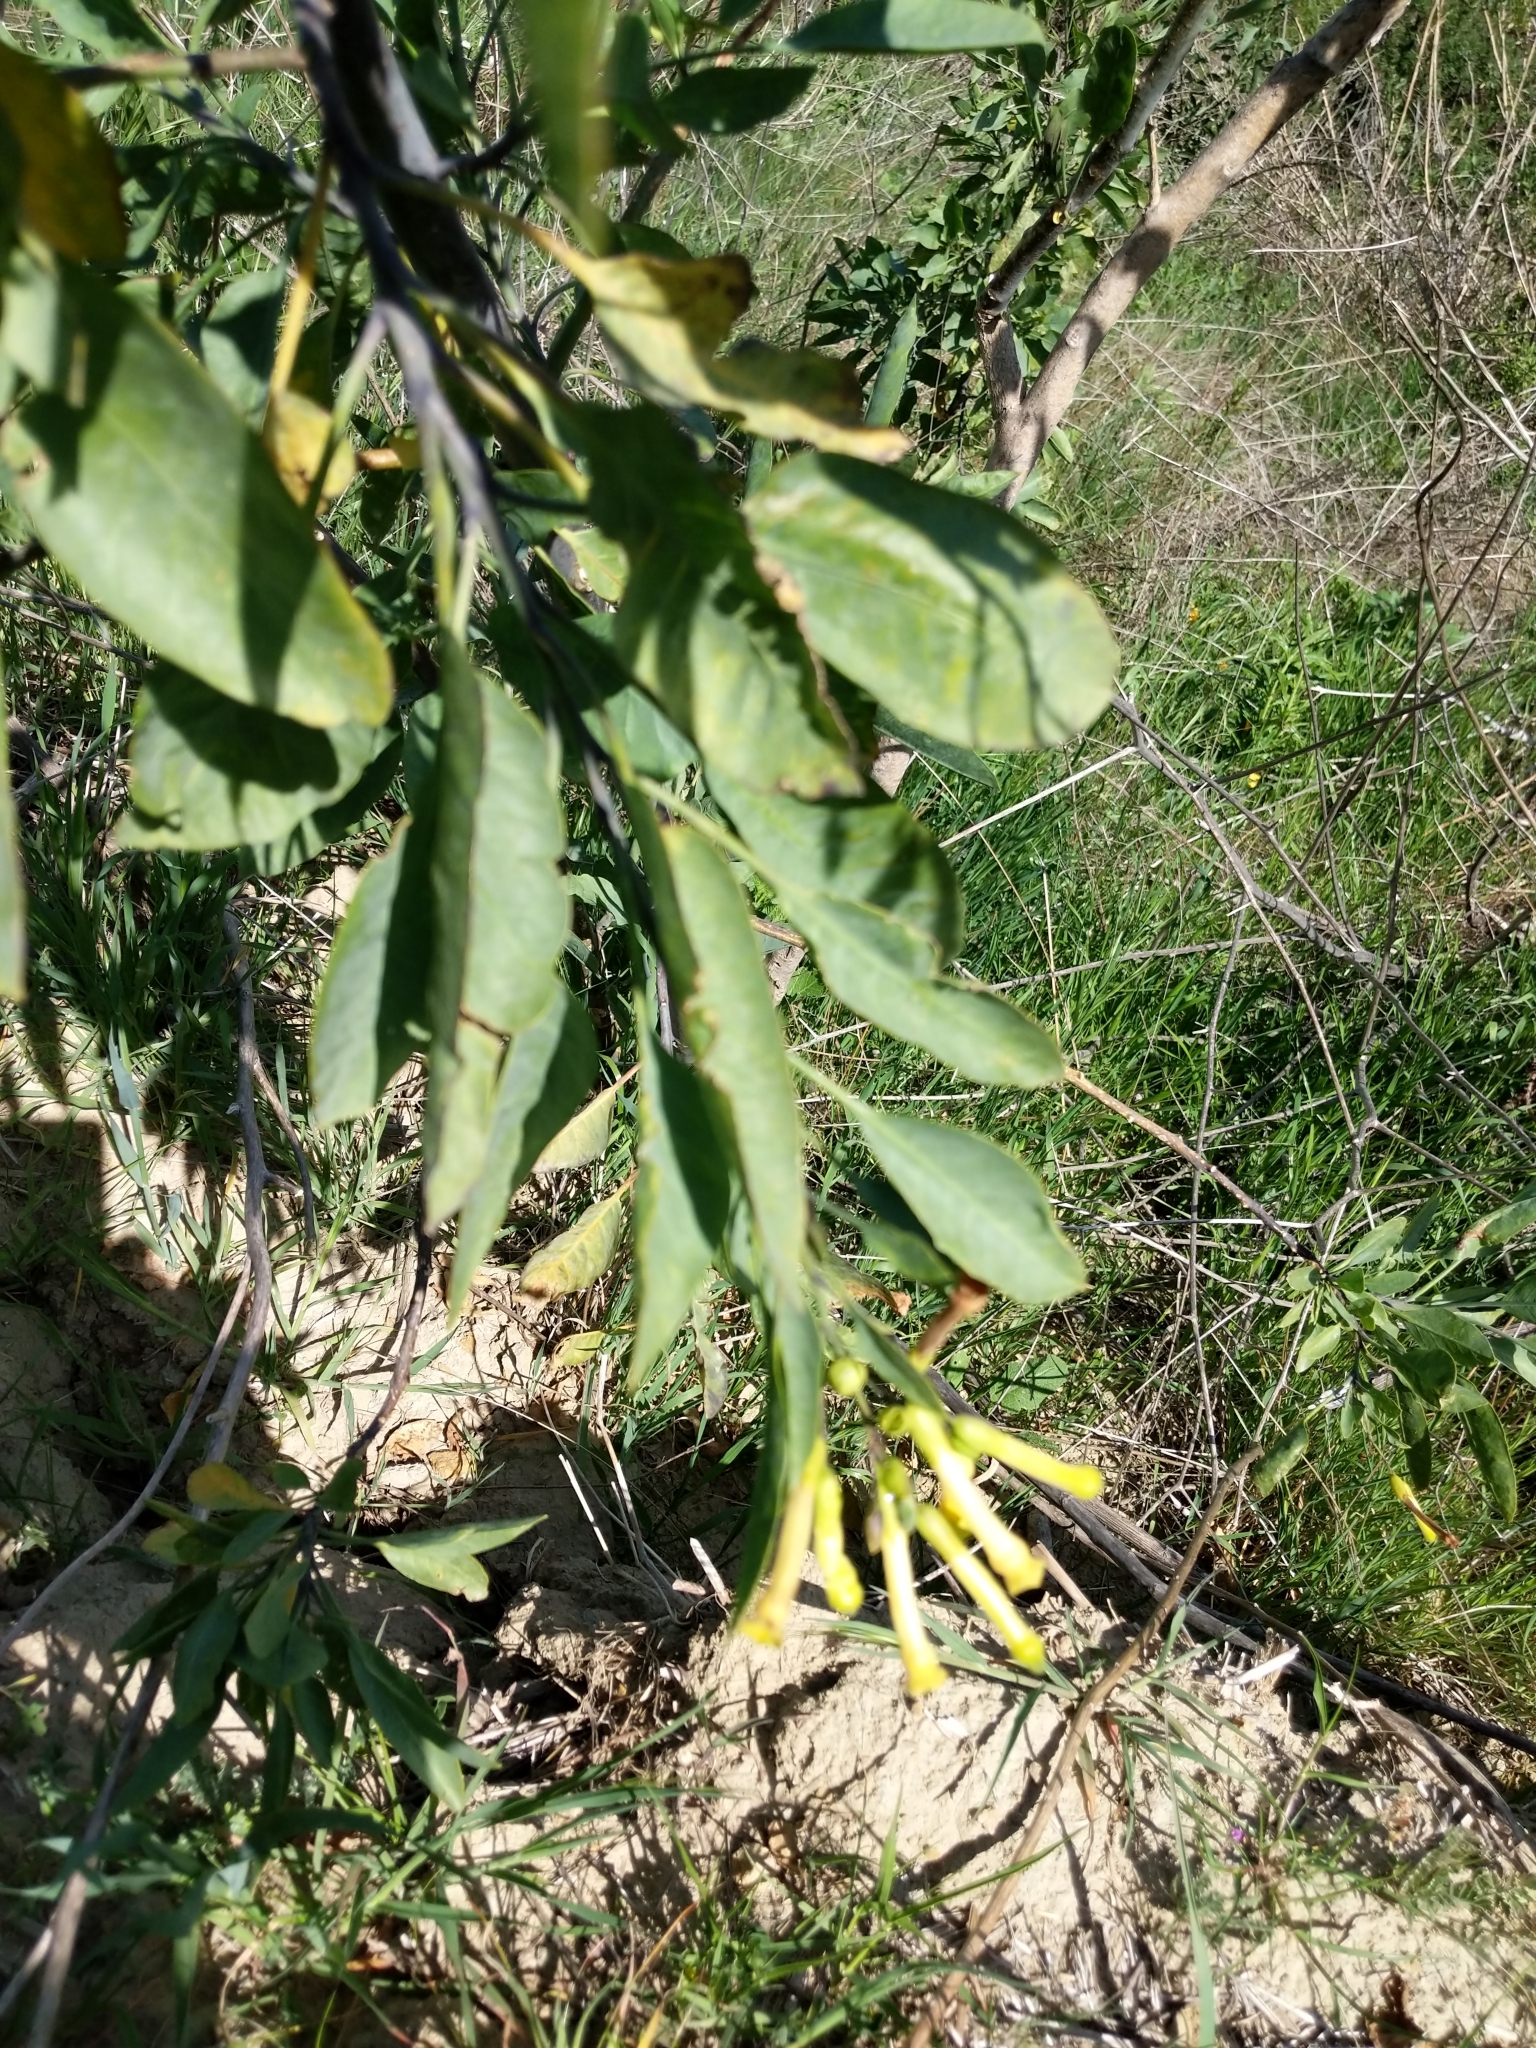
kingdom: Plantae
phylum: Tracheophyta
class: Magnoliopsida
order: Solanales
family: Solanaceae
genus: Nicotiana
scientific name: Nicotiana glauca
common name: Tree tobacco
